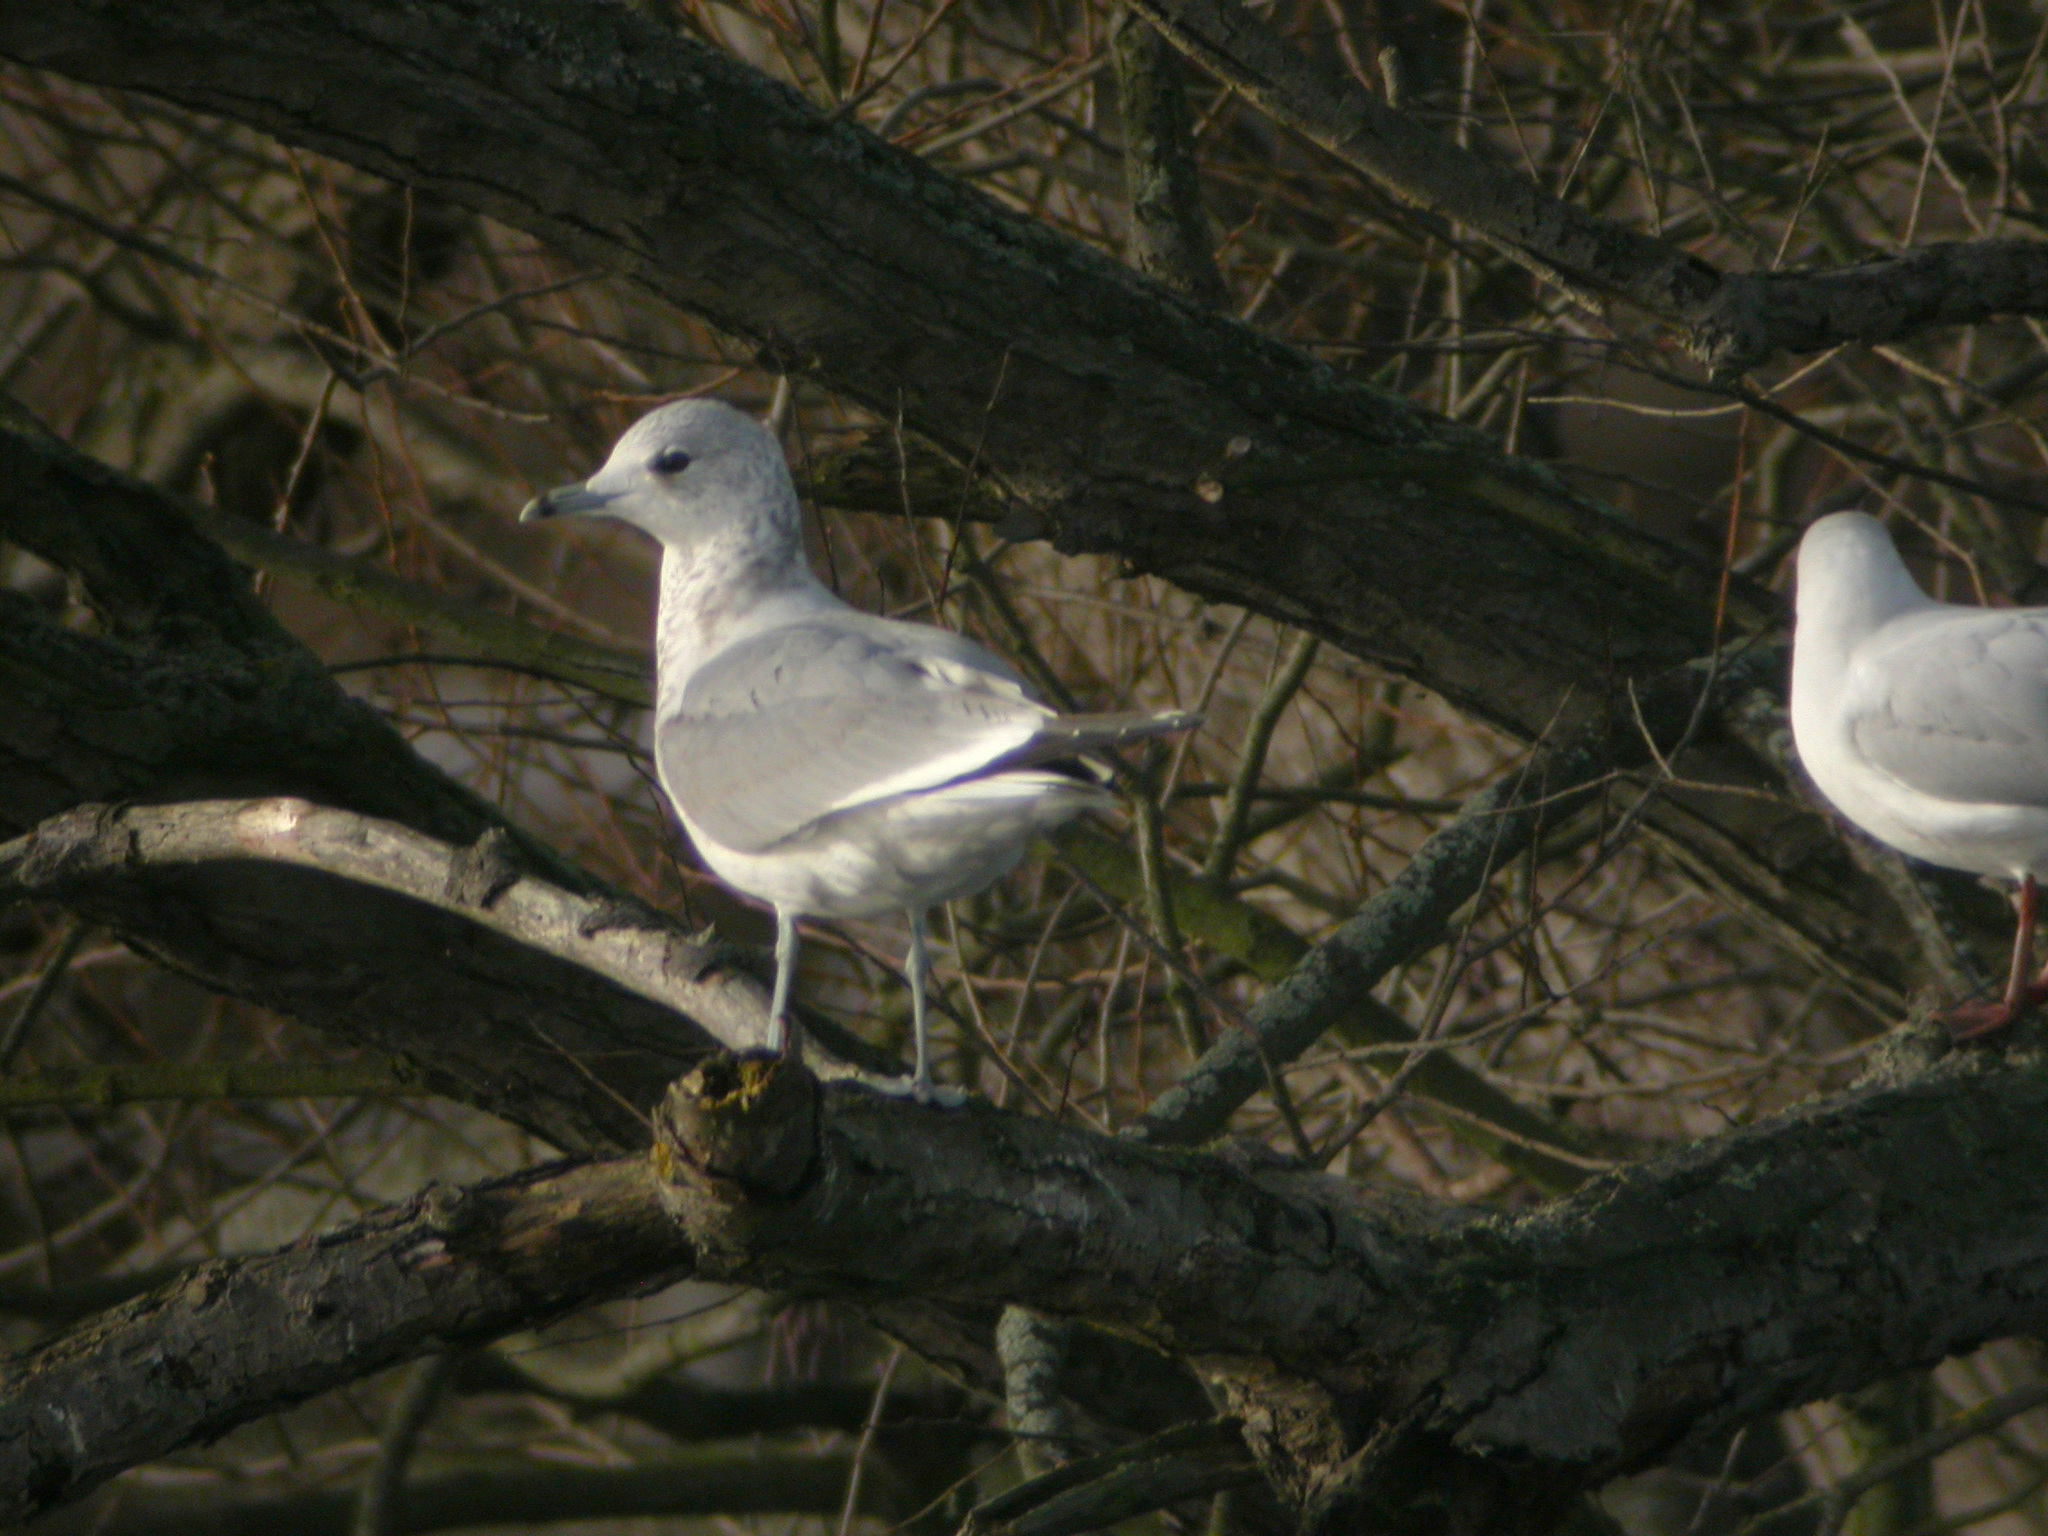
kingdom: Animalia
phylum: Chordata
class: Aves
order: Charadriiformes
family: Laridae
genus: Larus
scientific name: Larus canus
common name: Mew gull
